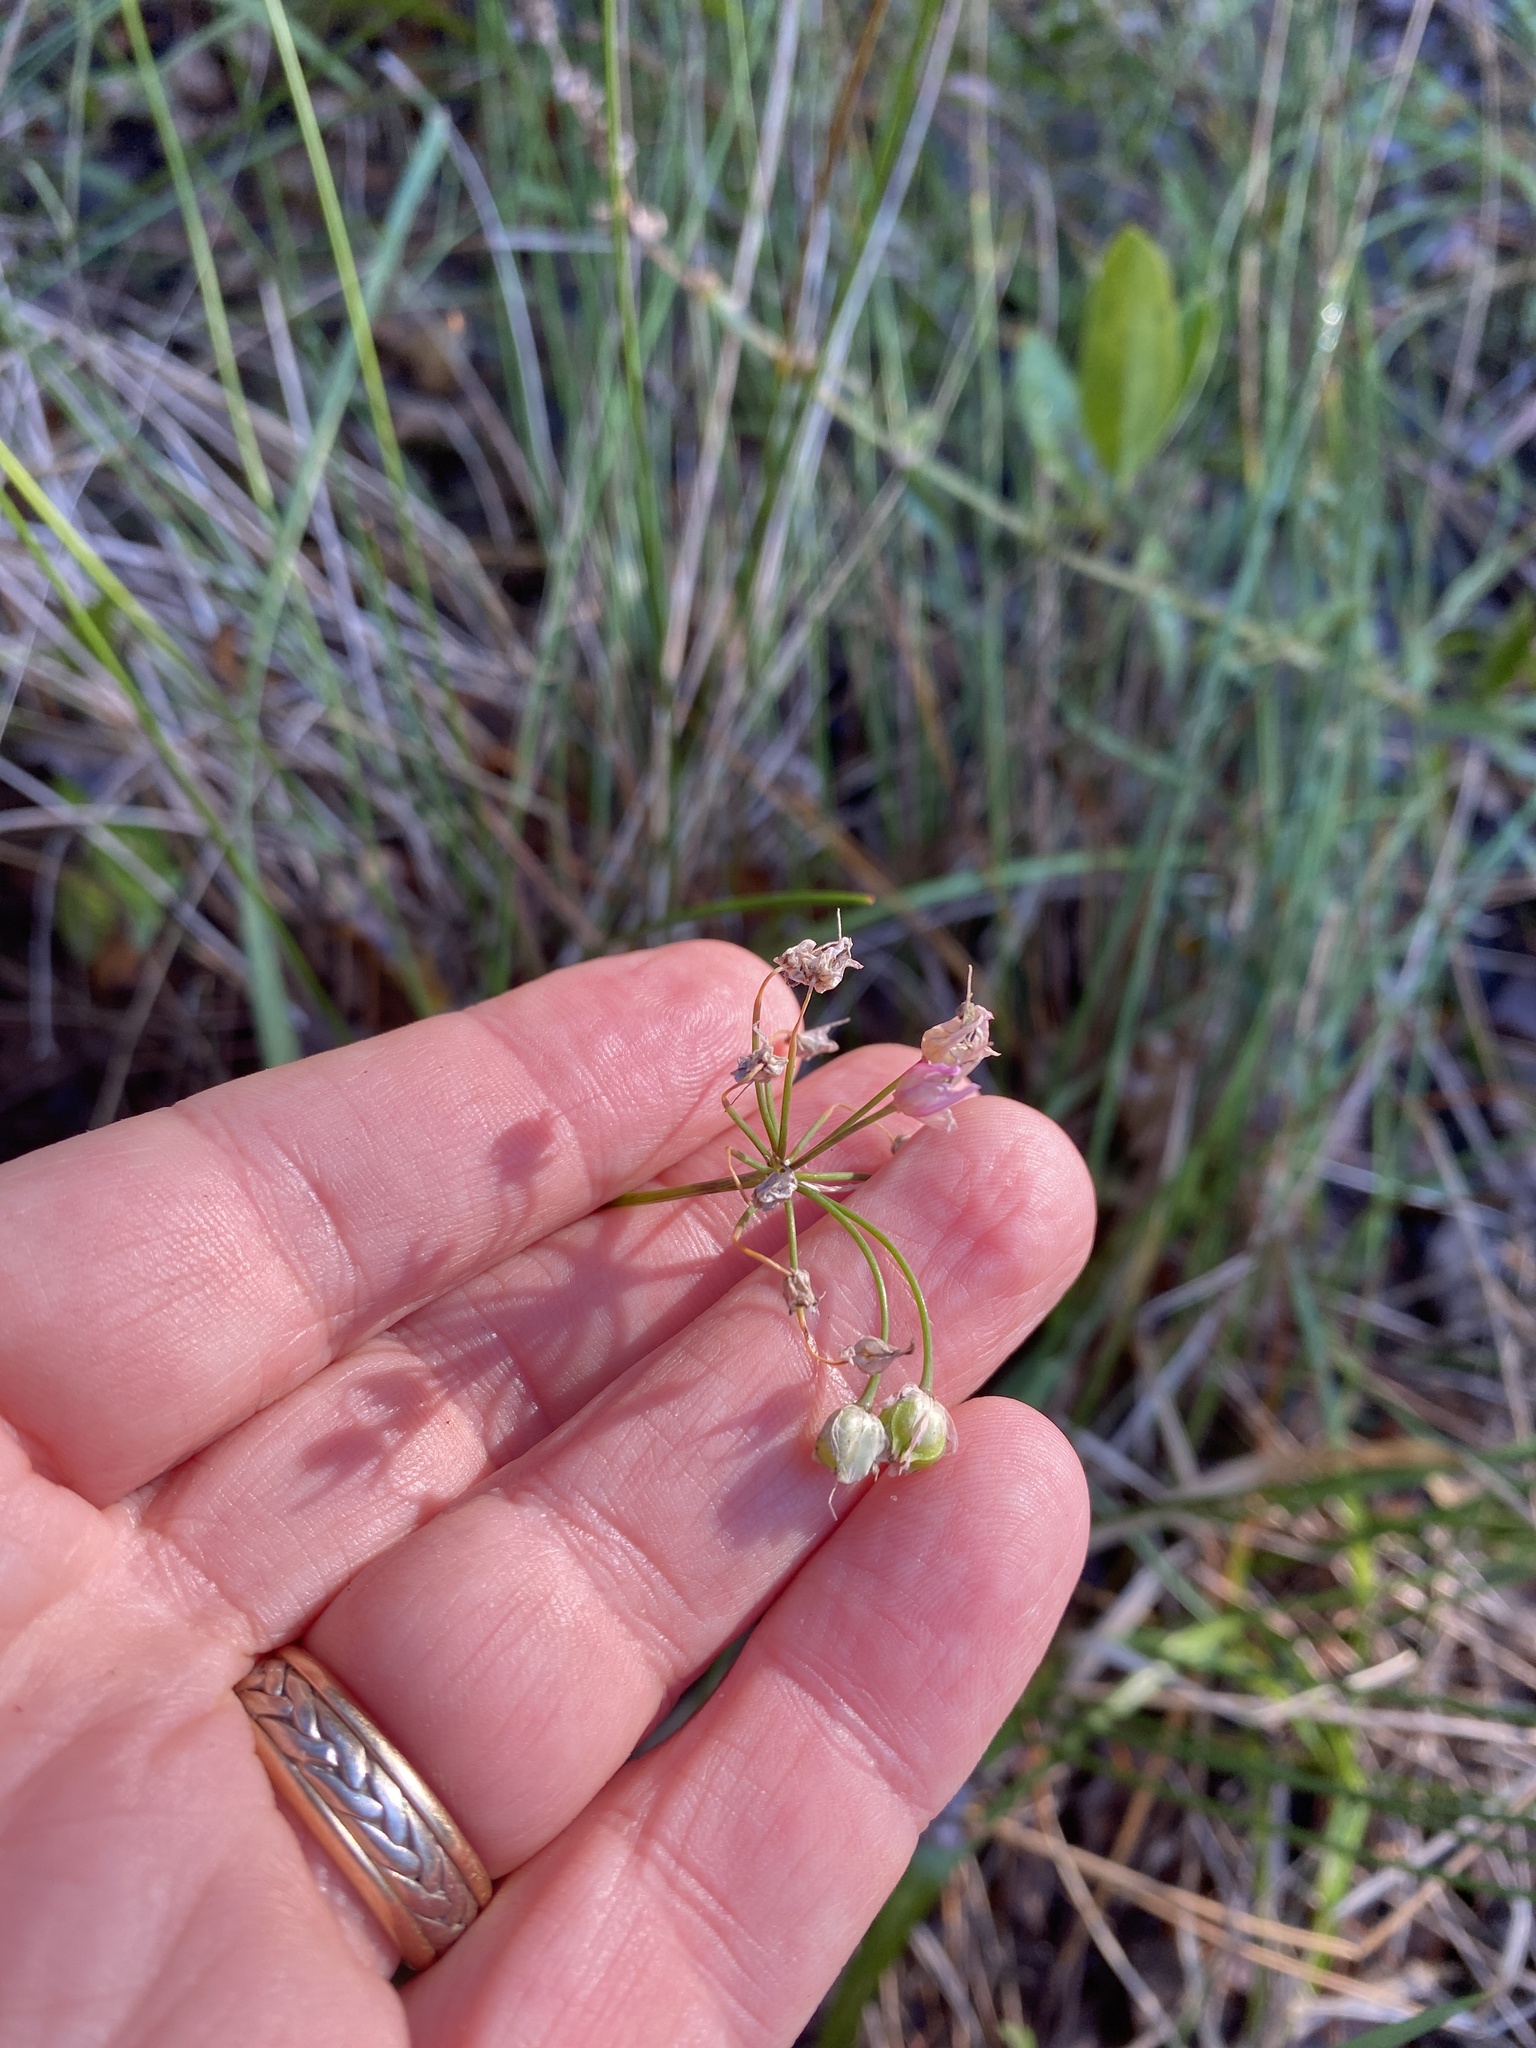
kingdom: Plantae
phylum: Tracheophyta
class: Liliopsida
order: Asparagales
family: Amaryllidaceae
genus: Allium
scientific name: Allium cernuum
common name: Nodding onion
